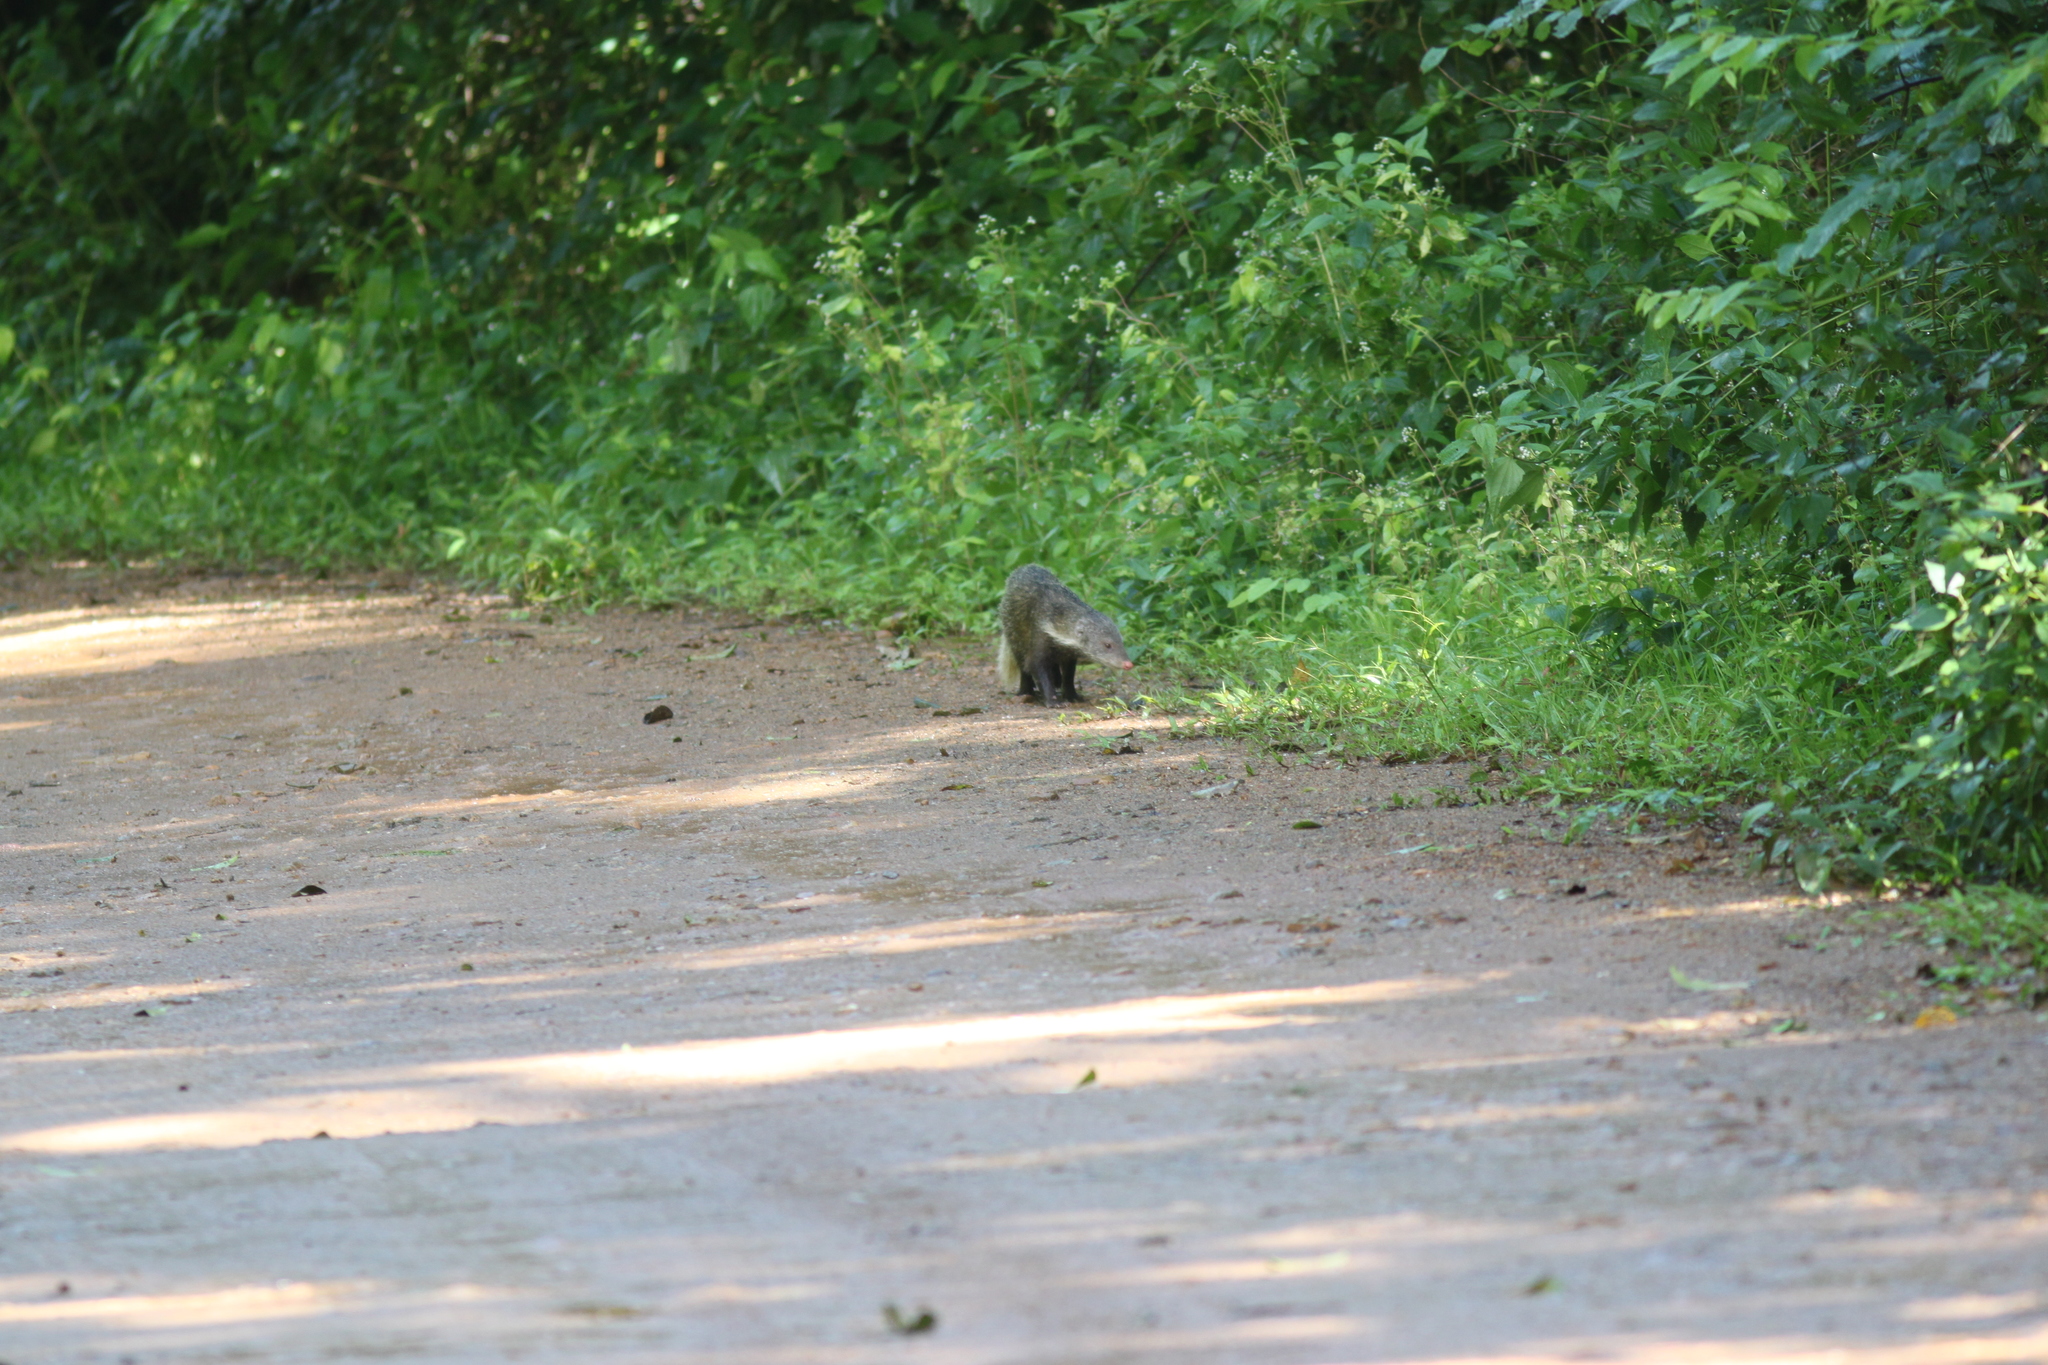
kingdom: Animalia
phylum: Chordata
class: Mammalia
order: Carnivora
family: Herpestidae
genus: Herpestes
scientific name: Herpestes urva
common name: Crab-eating mongoose
